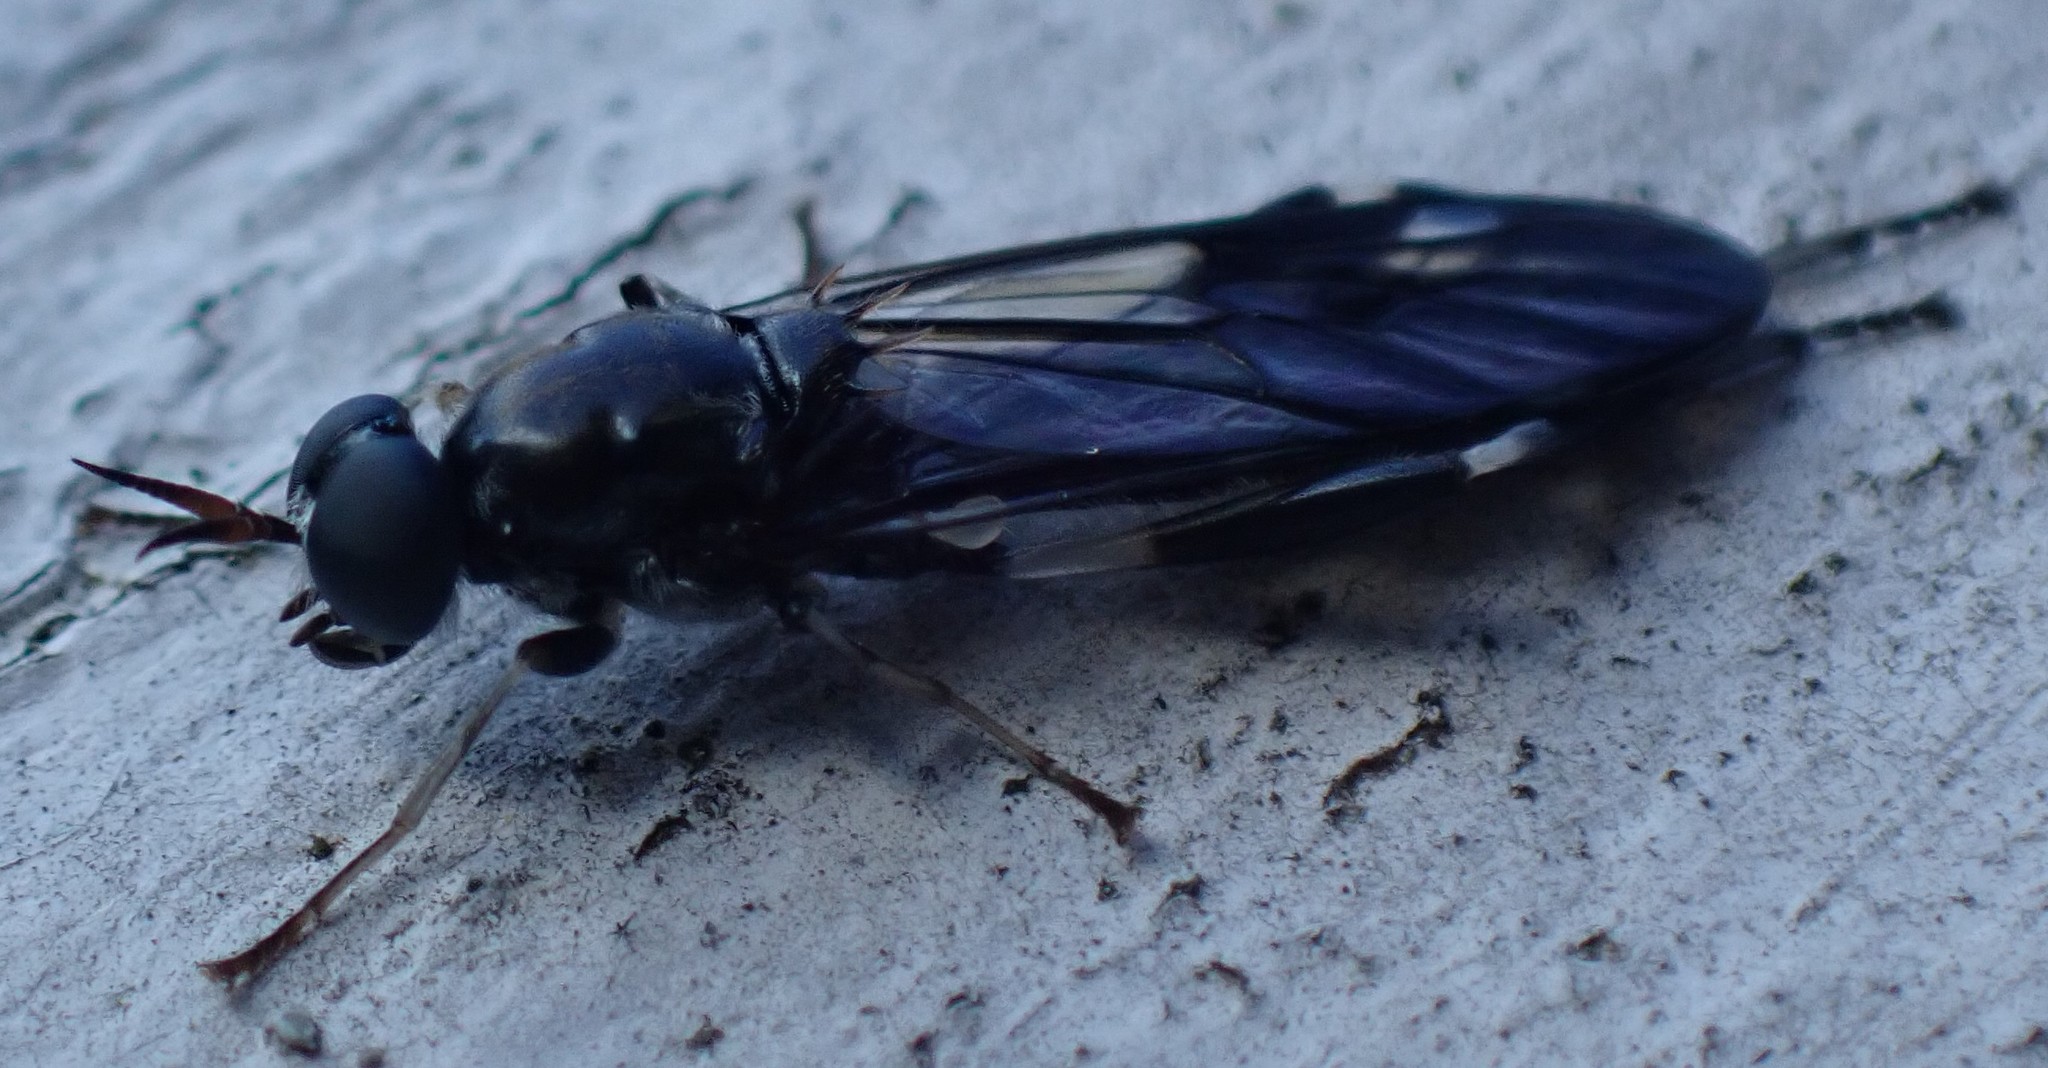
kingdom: Animalia
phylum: Arthropoda
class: Insecta
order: Diptera
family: Stratiomyidae
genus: Exaireta
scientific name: Exaireta spinigera
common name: Blue soldier fly
